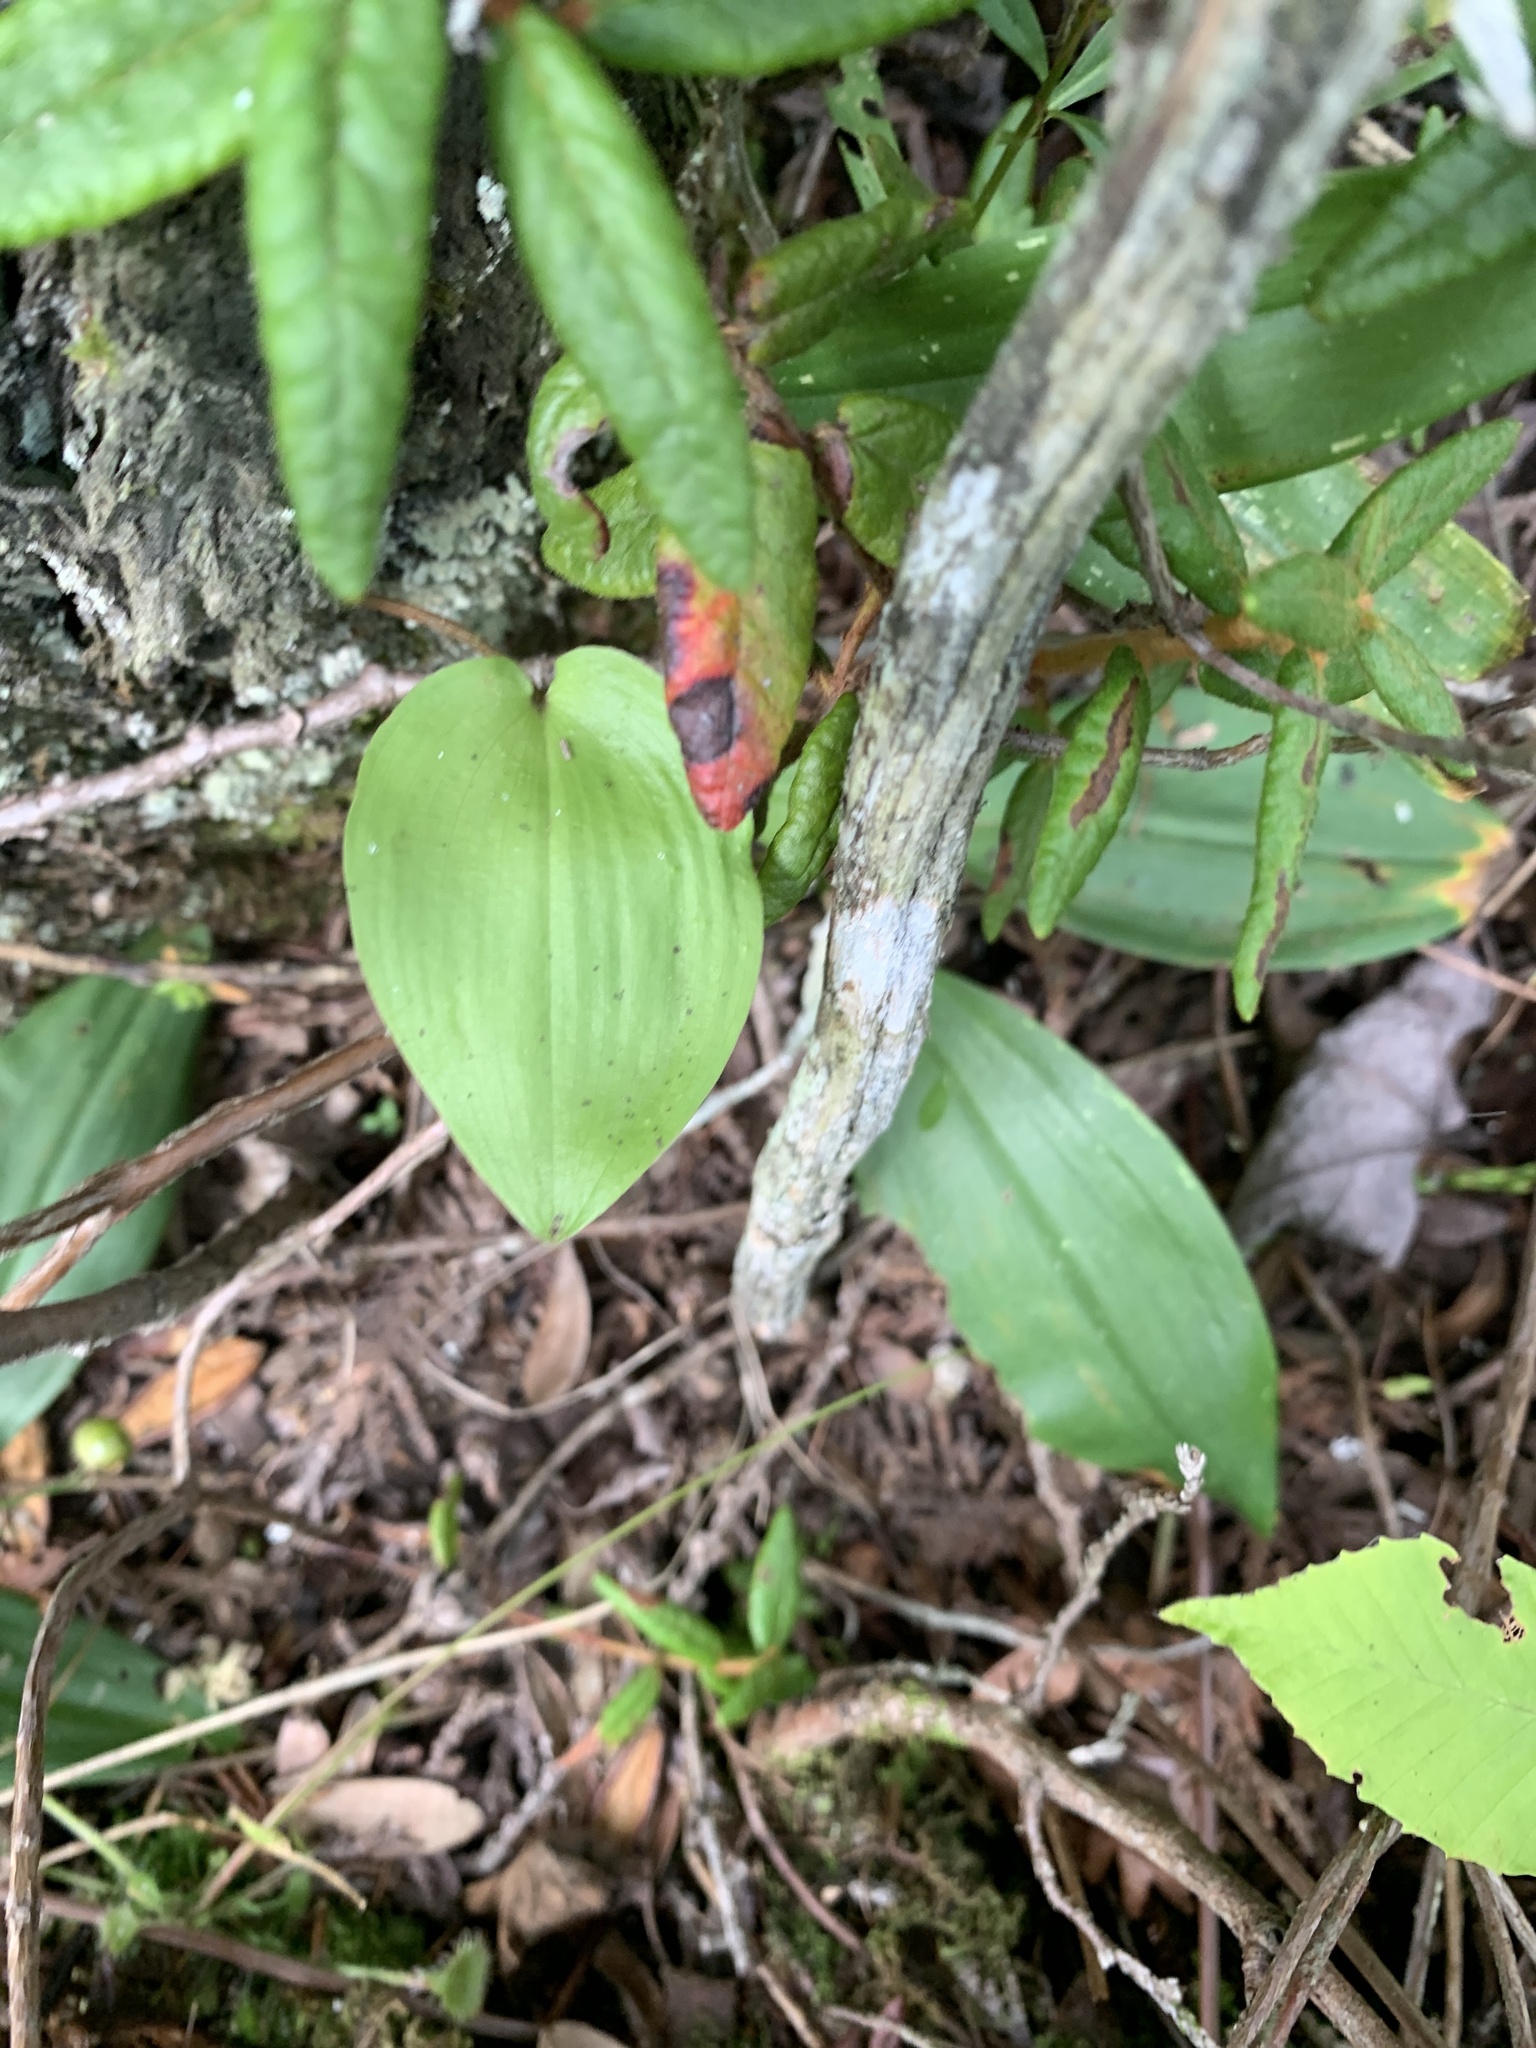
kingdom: Plantae
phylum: Tracheophyta
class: Liliopsida
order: Asparagales
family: Asparagaceae
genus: Maianthemum
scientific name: Maianthemum canadense
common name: False lily-of-the-valley
